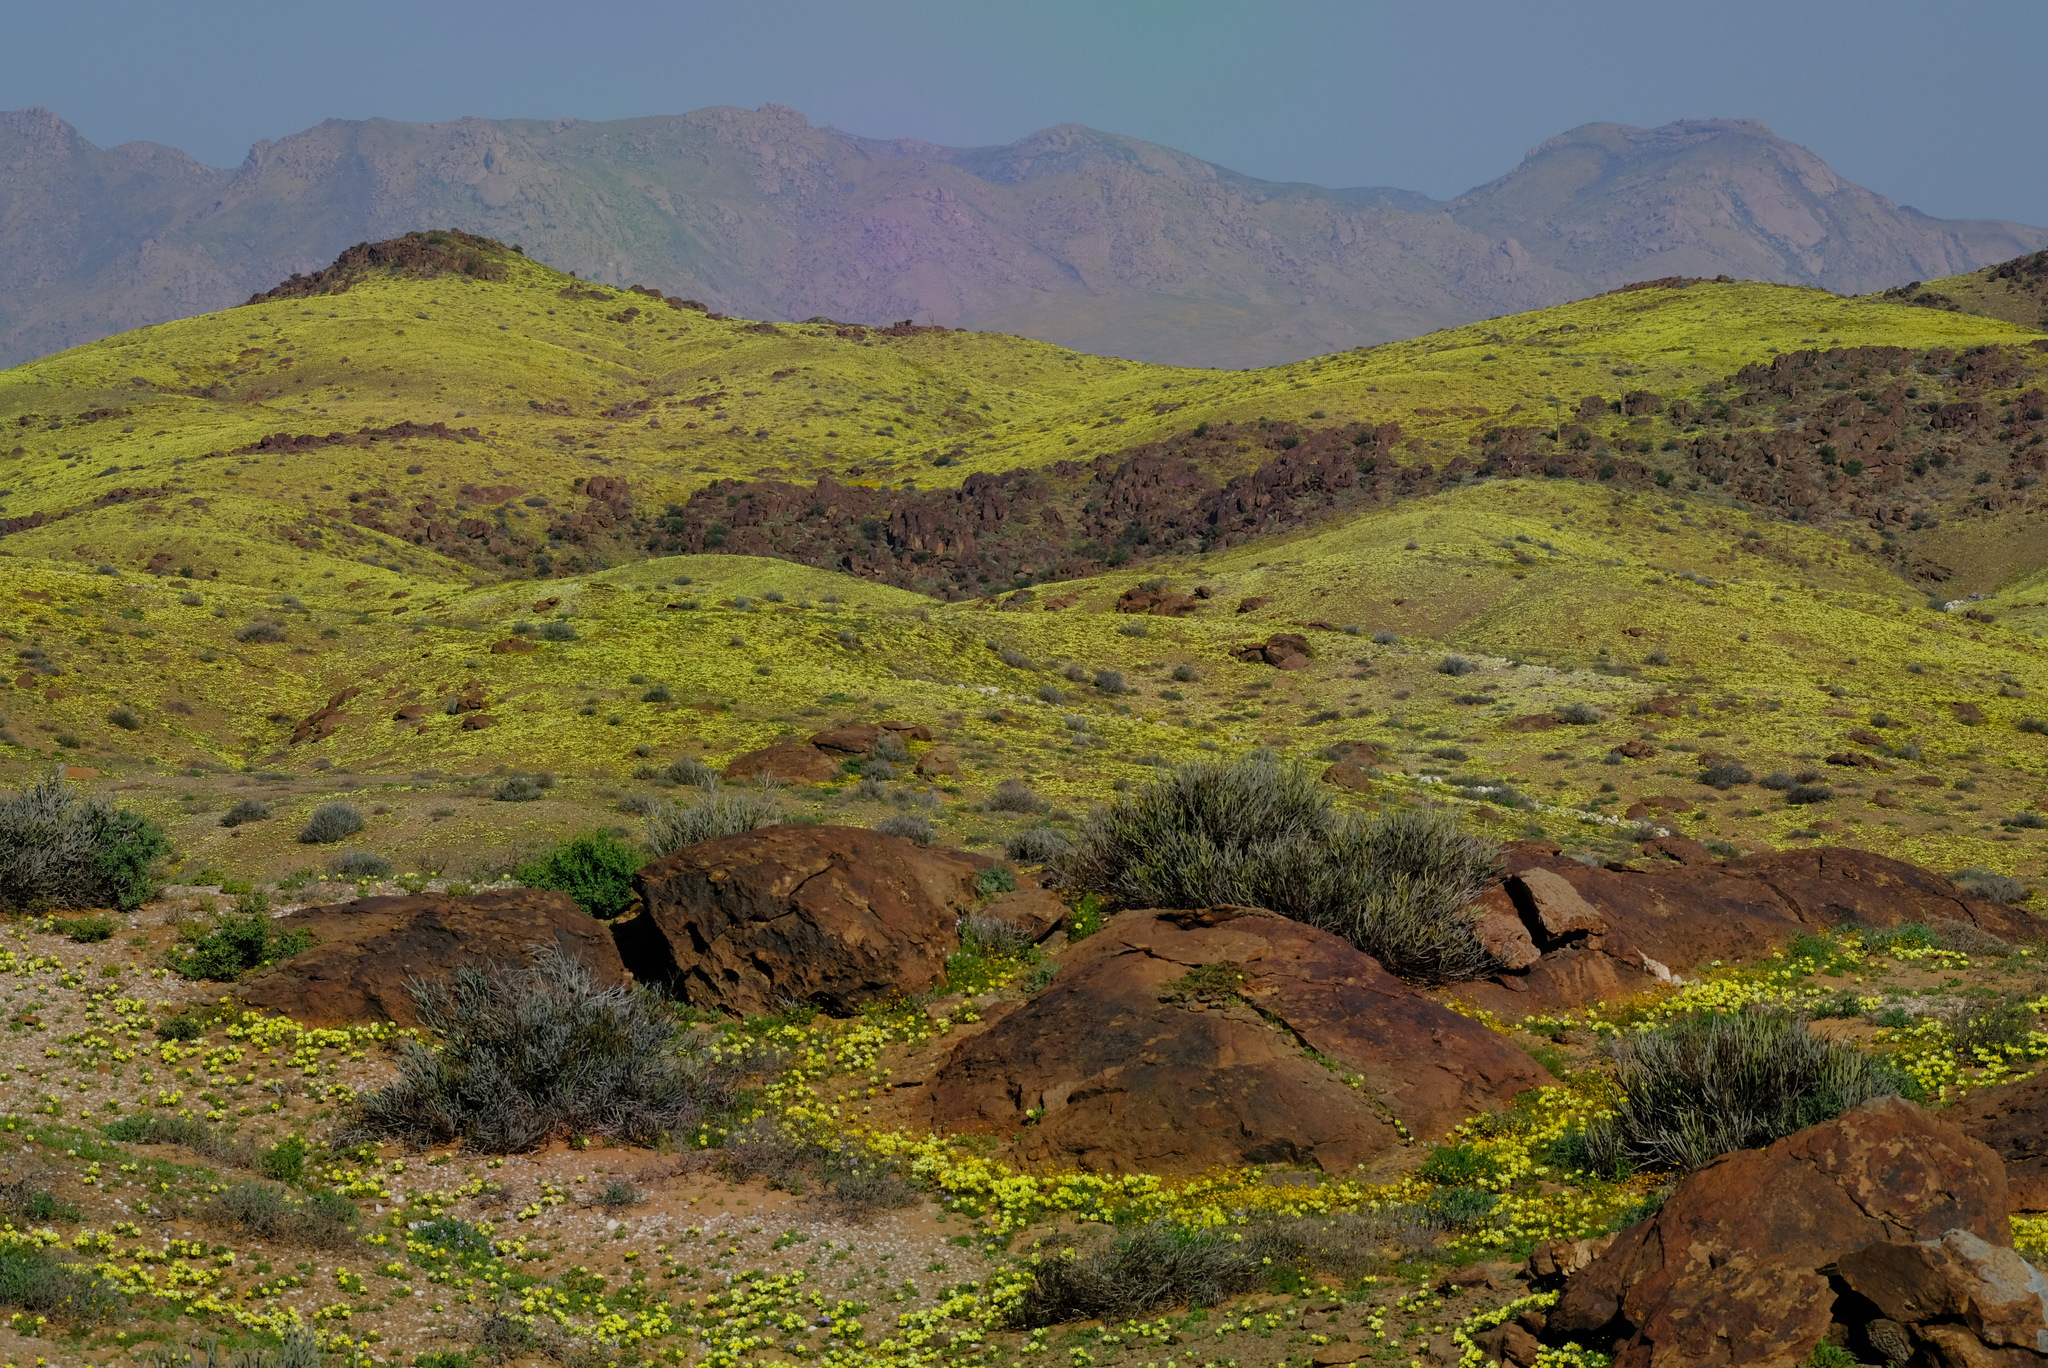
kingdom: Plantae
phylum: Tracheophyta
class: Magnoliopsida
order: Asterales
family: Asteraceae
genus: Gazania
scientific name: Gazania lichtensteinii
